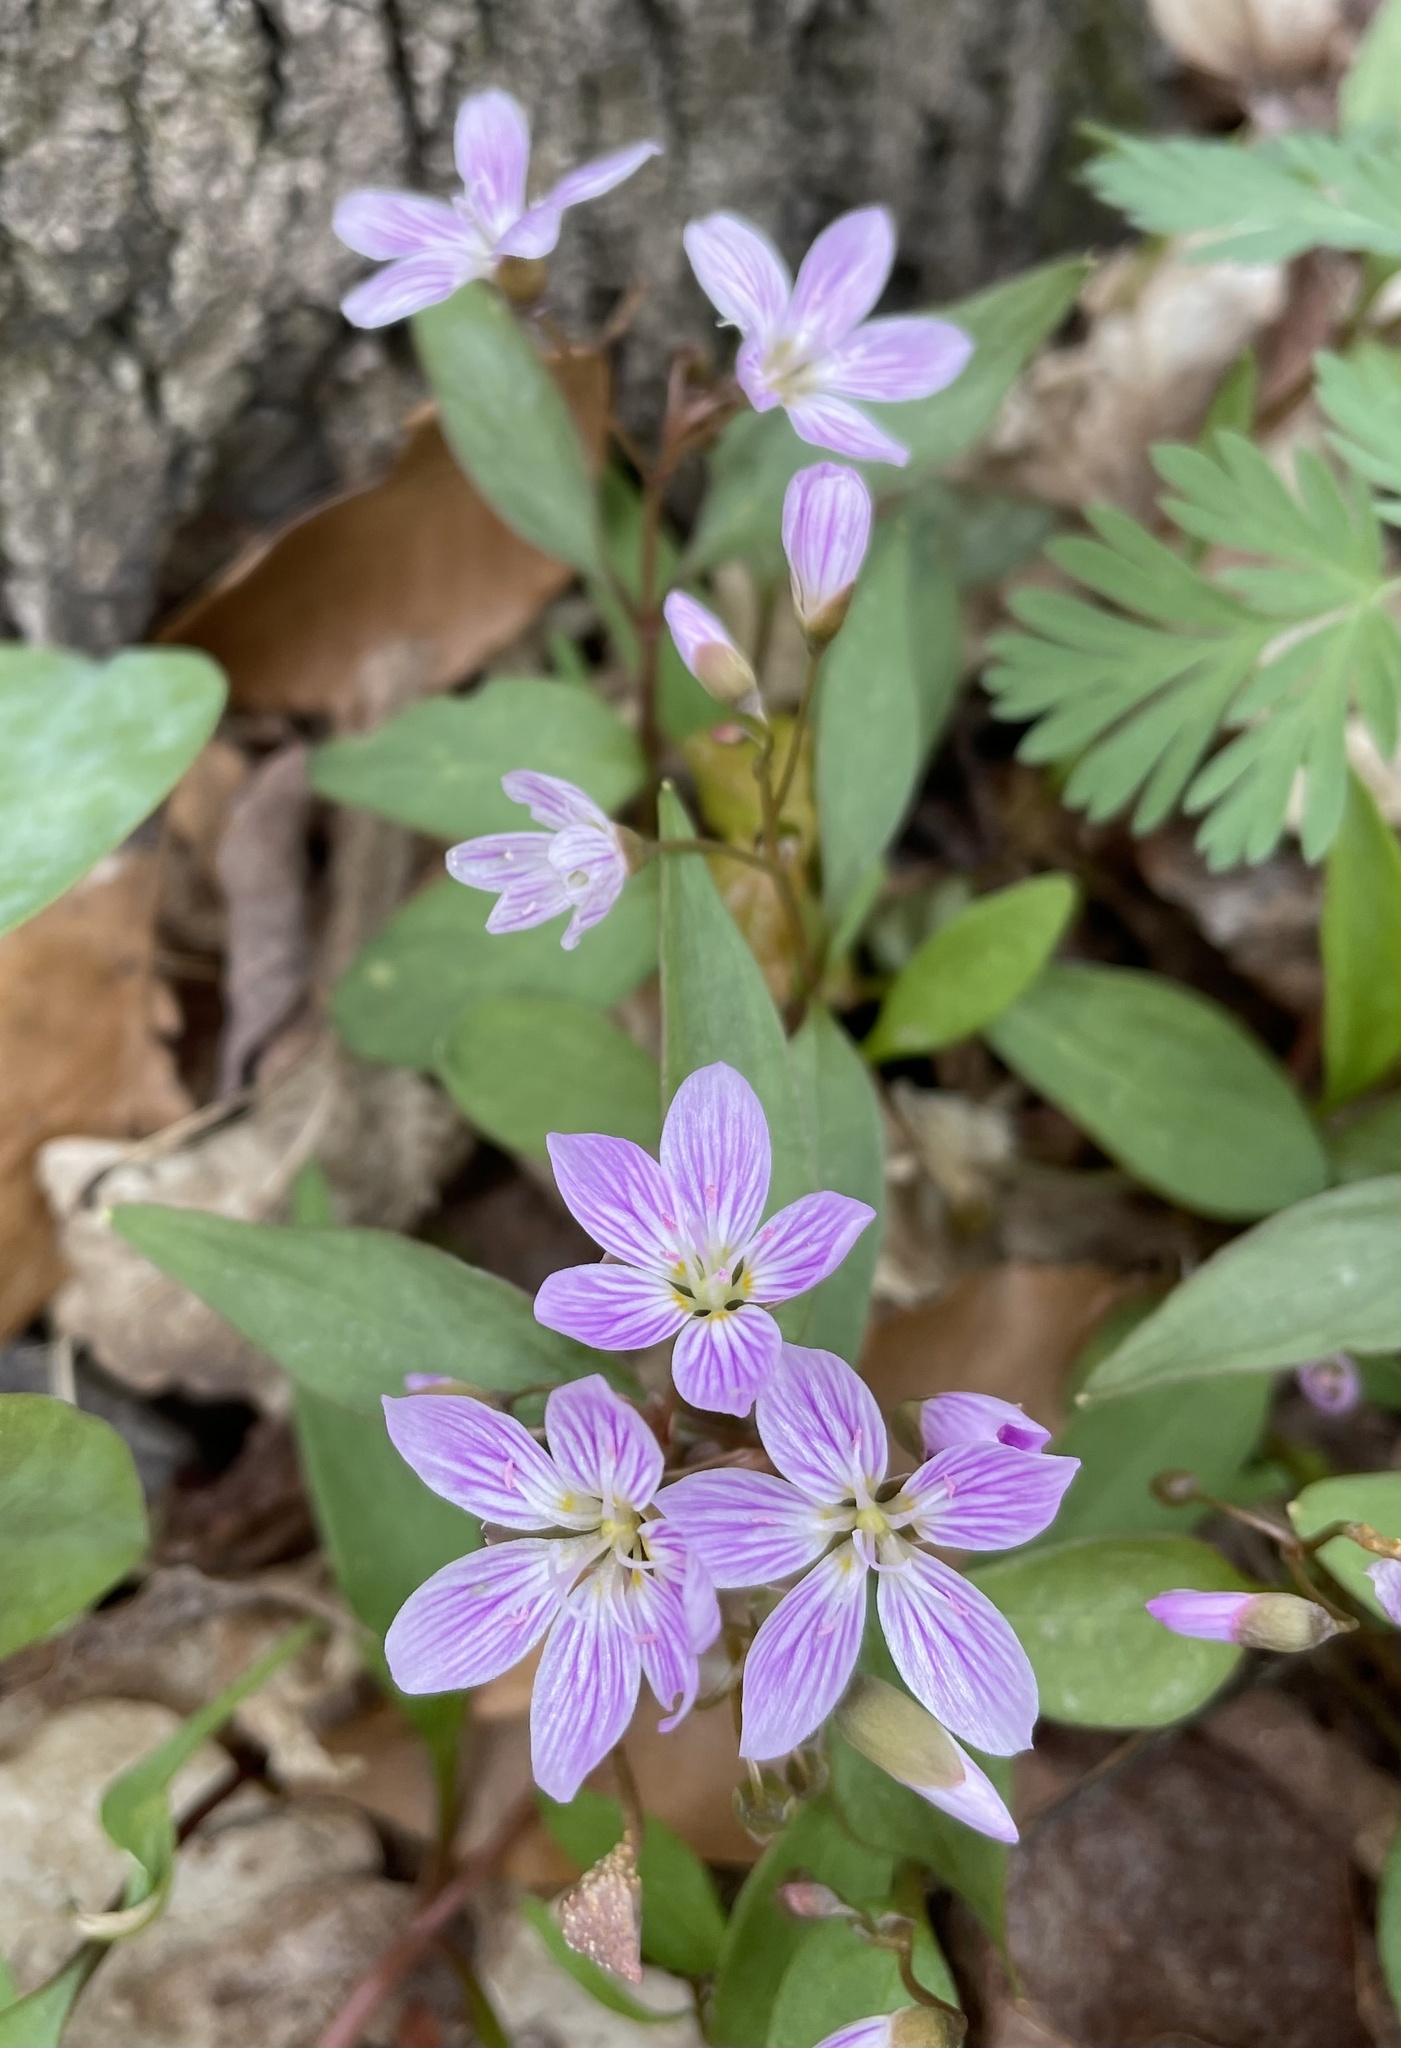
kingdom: Plantae
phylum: Tracheophyta
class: Magnoliopsida
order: Caryophyllales
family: Montiaceae
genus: Claytonia
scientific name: Claytonia caroliniana
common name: Carolina spring beauty
